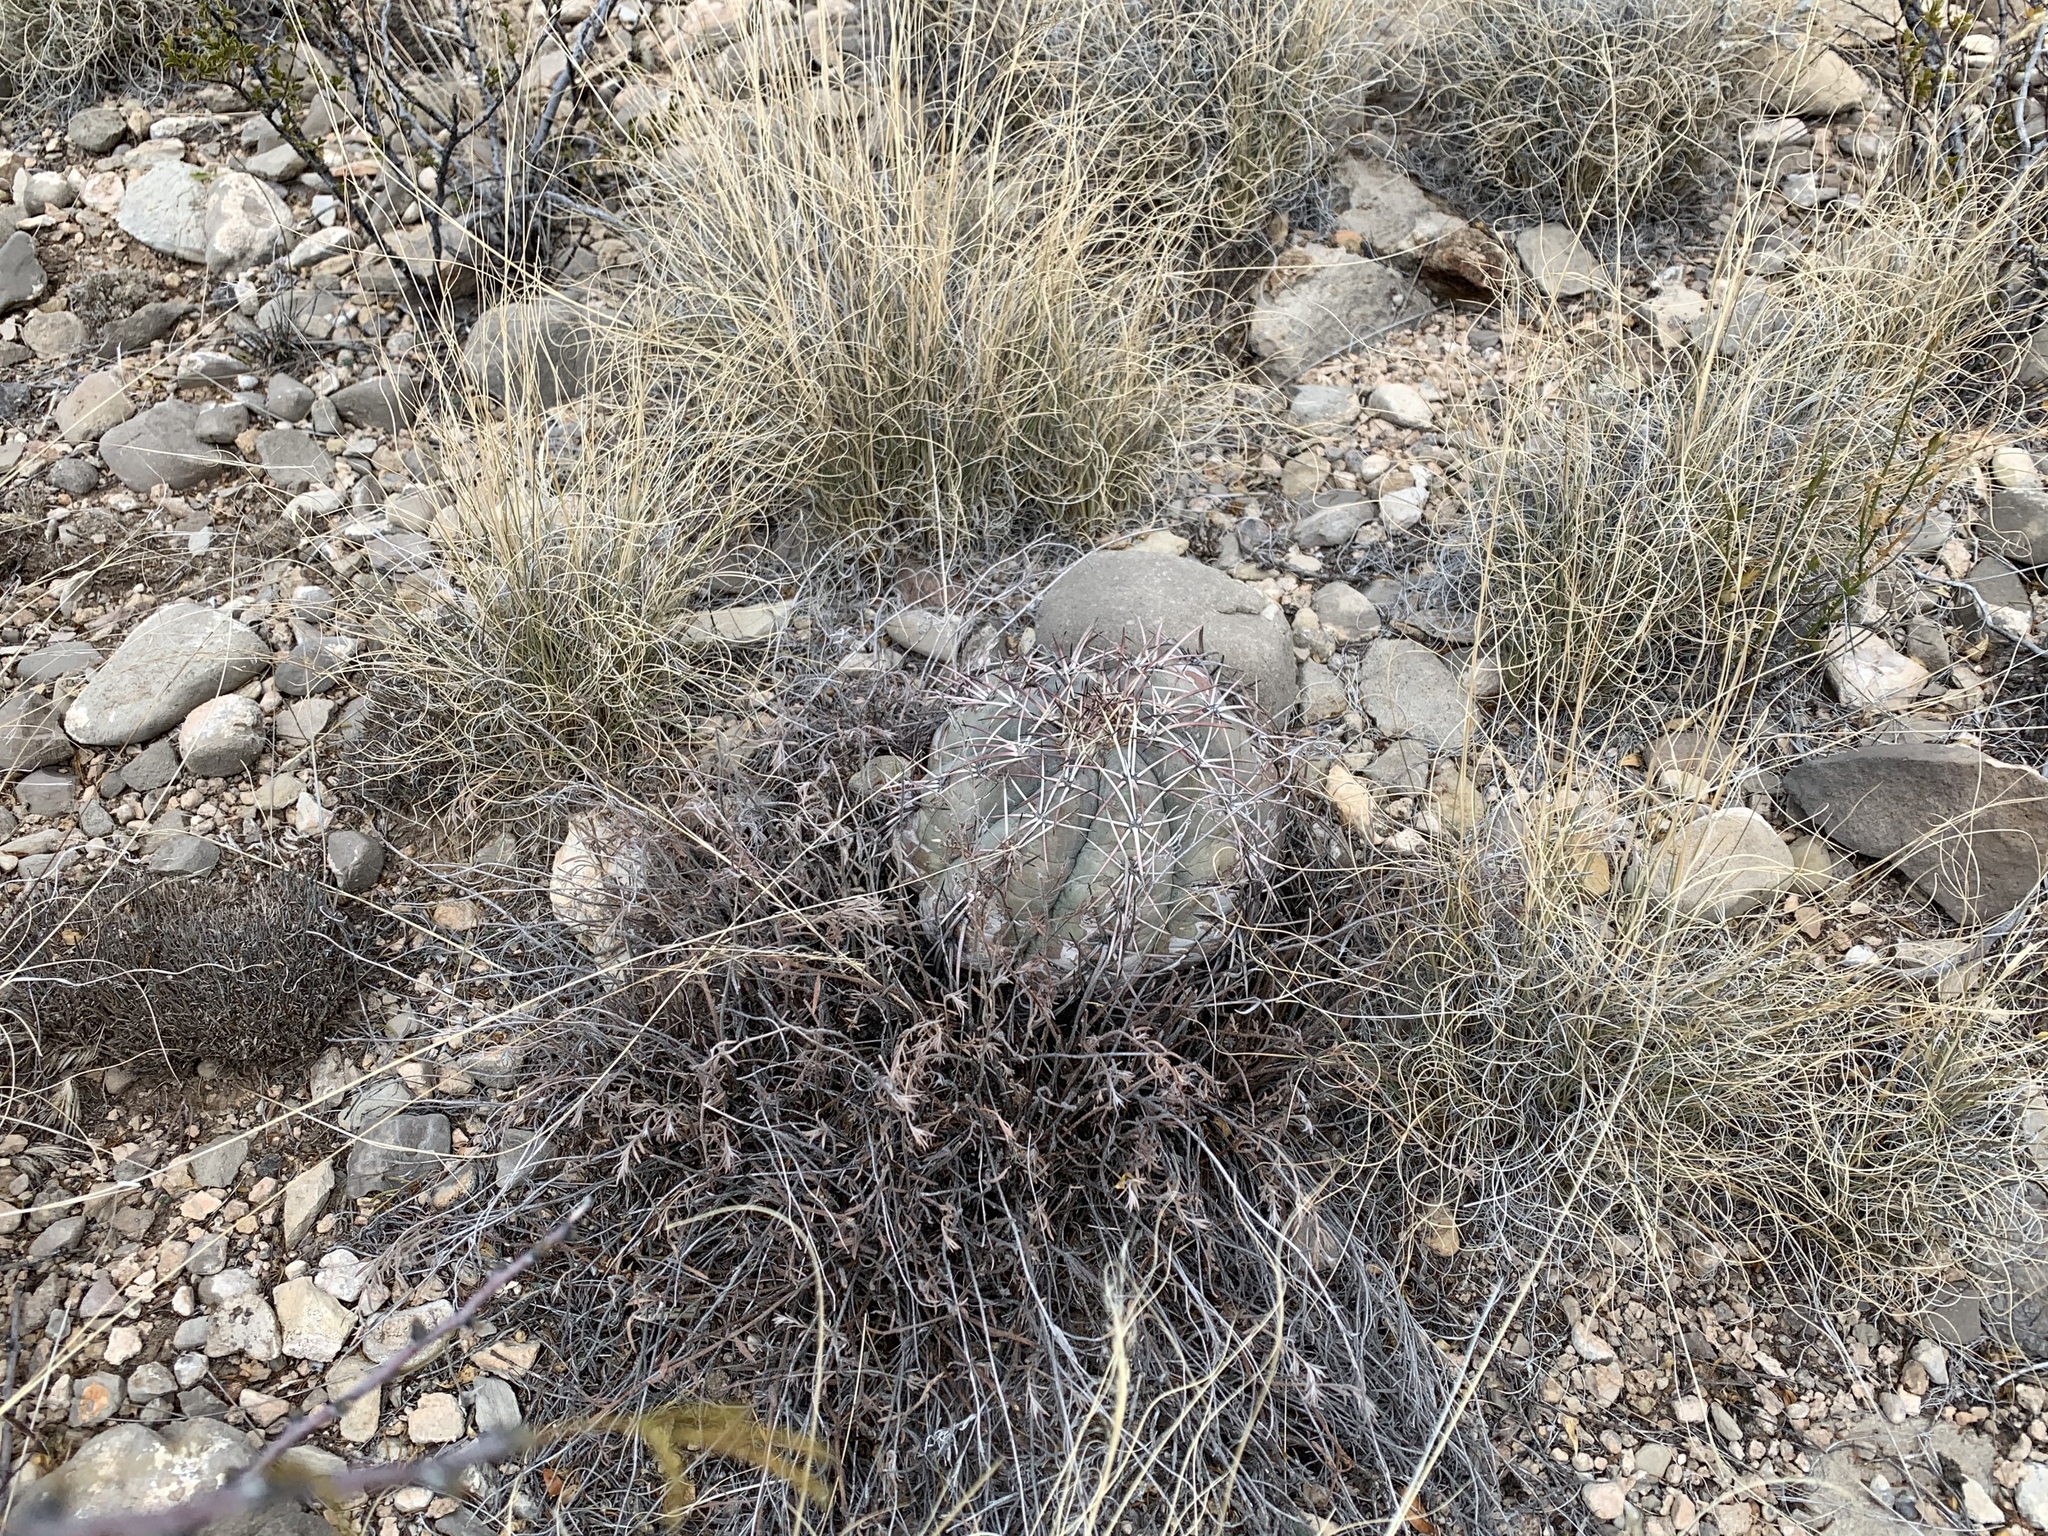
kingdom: Plantae
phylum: Tracheophyta
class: Magnoliopsida
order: Caryophyllales
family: Cactaceae
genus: Echinocactus
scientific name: Echinocactus horizonthalonius
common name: Devilshead
